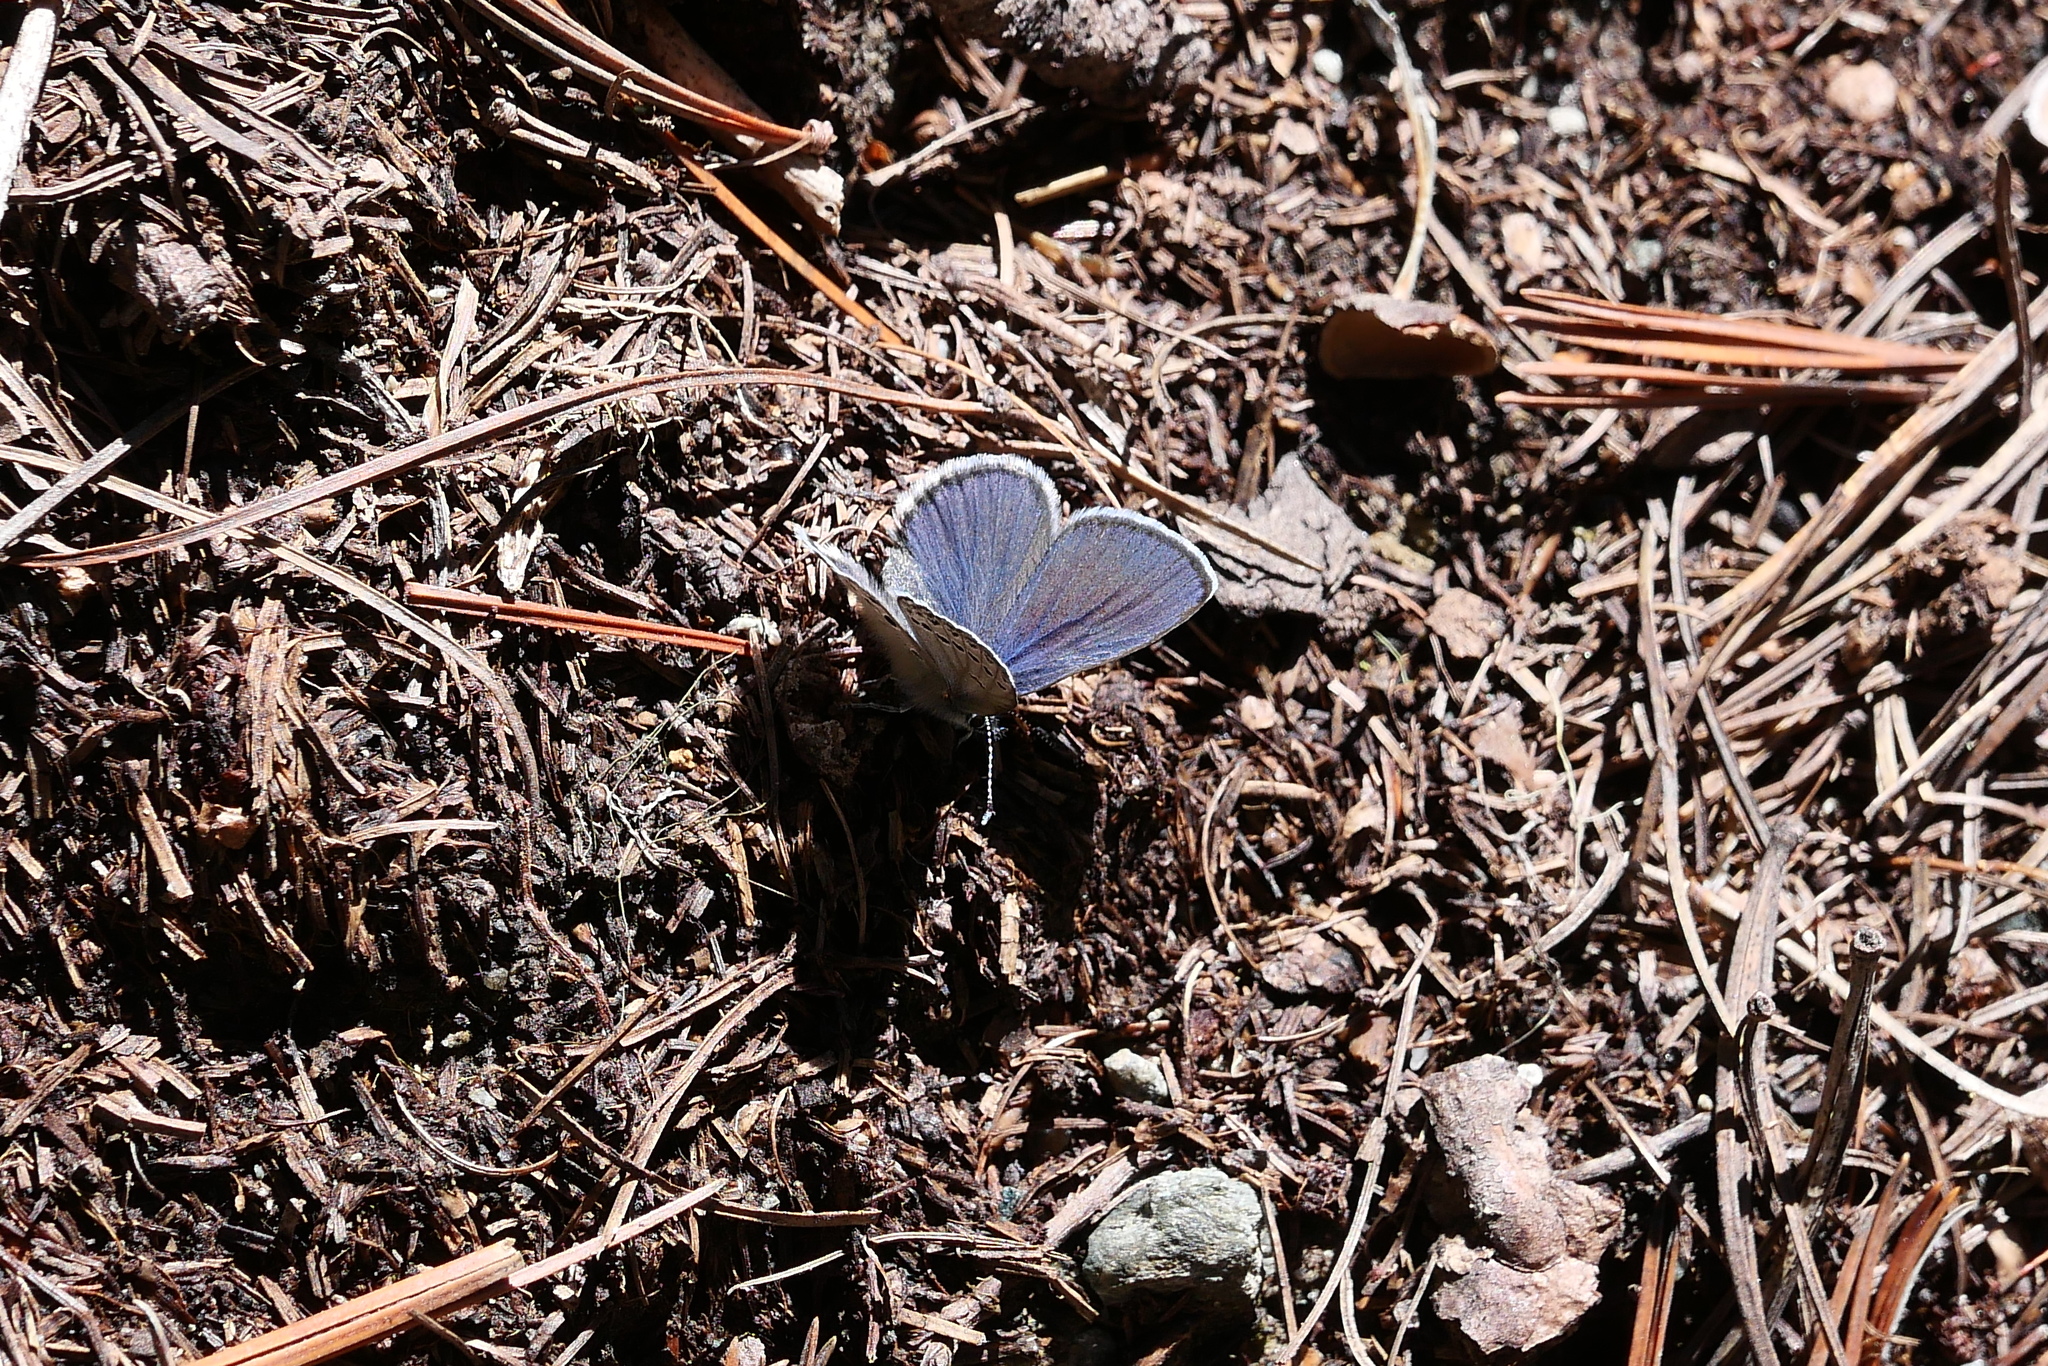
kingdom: Animalia
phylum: Arthropoda
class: Insecta
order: Lepidoptera
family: Lycaenidae
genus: Vacciniina
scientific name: Vacciniina optilete
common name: Cranberry blue
